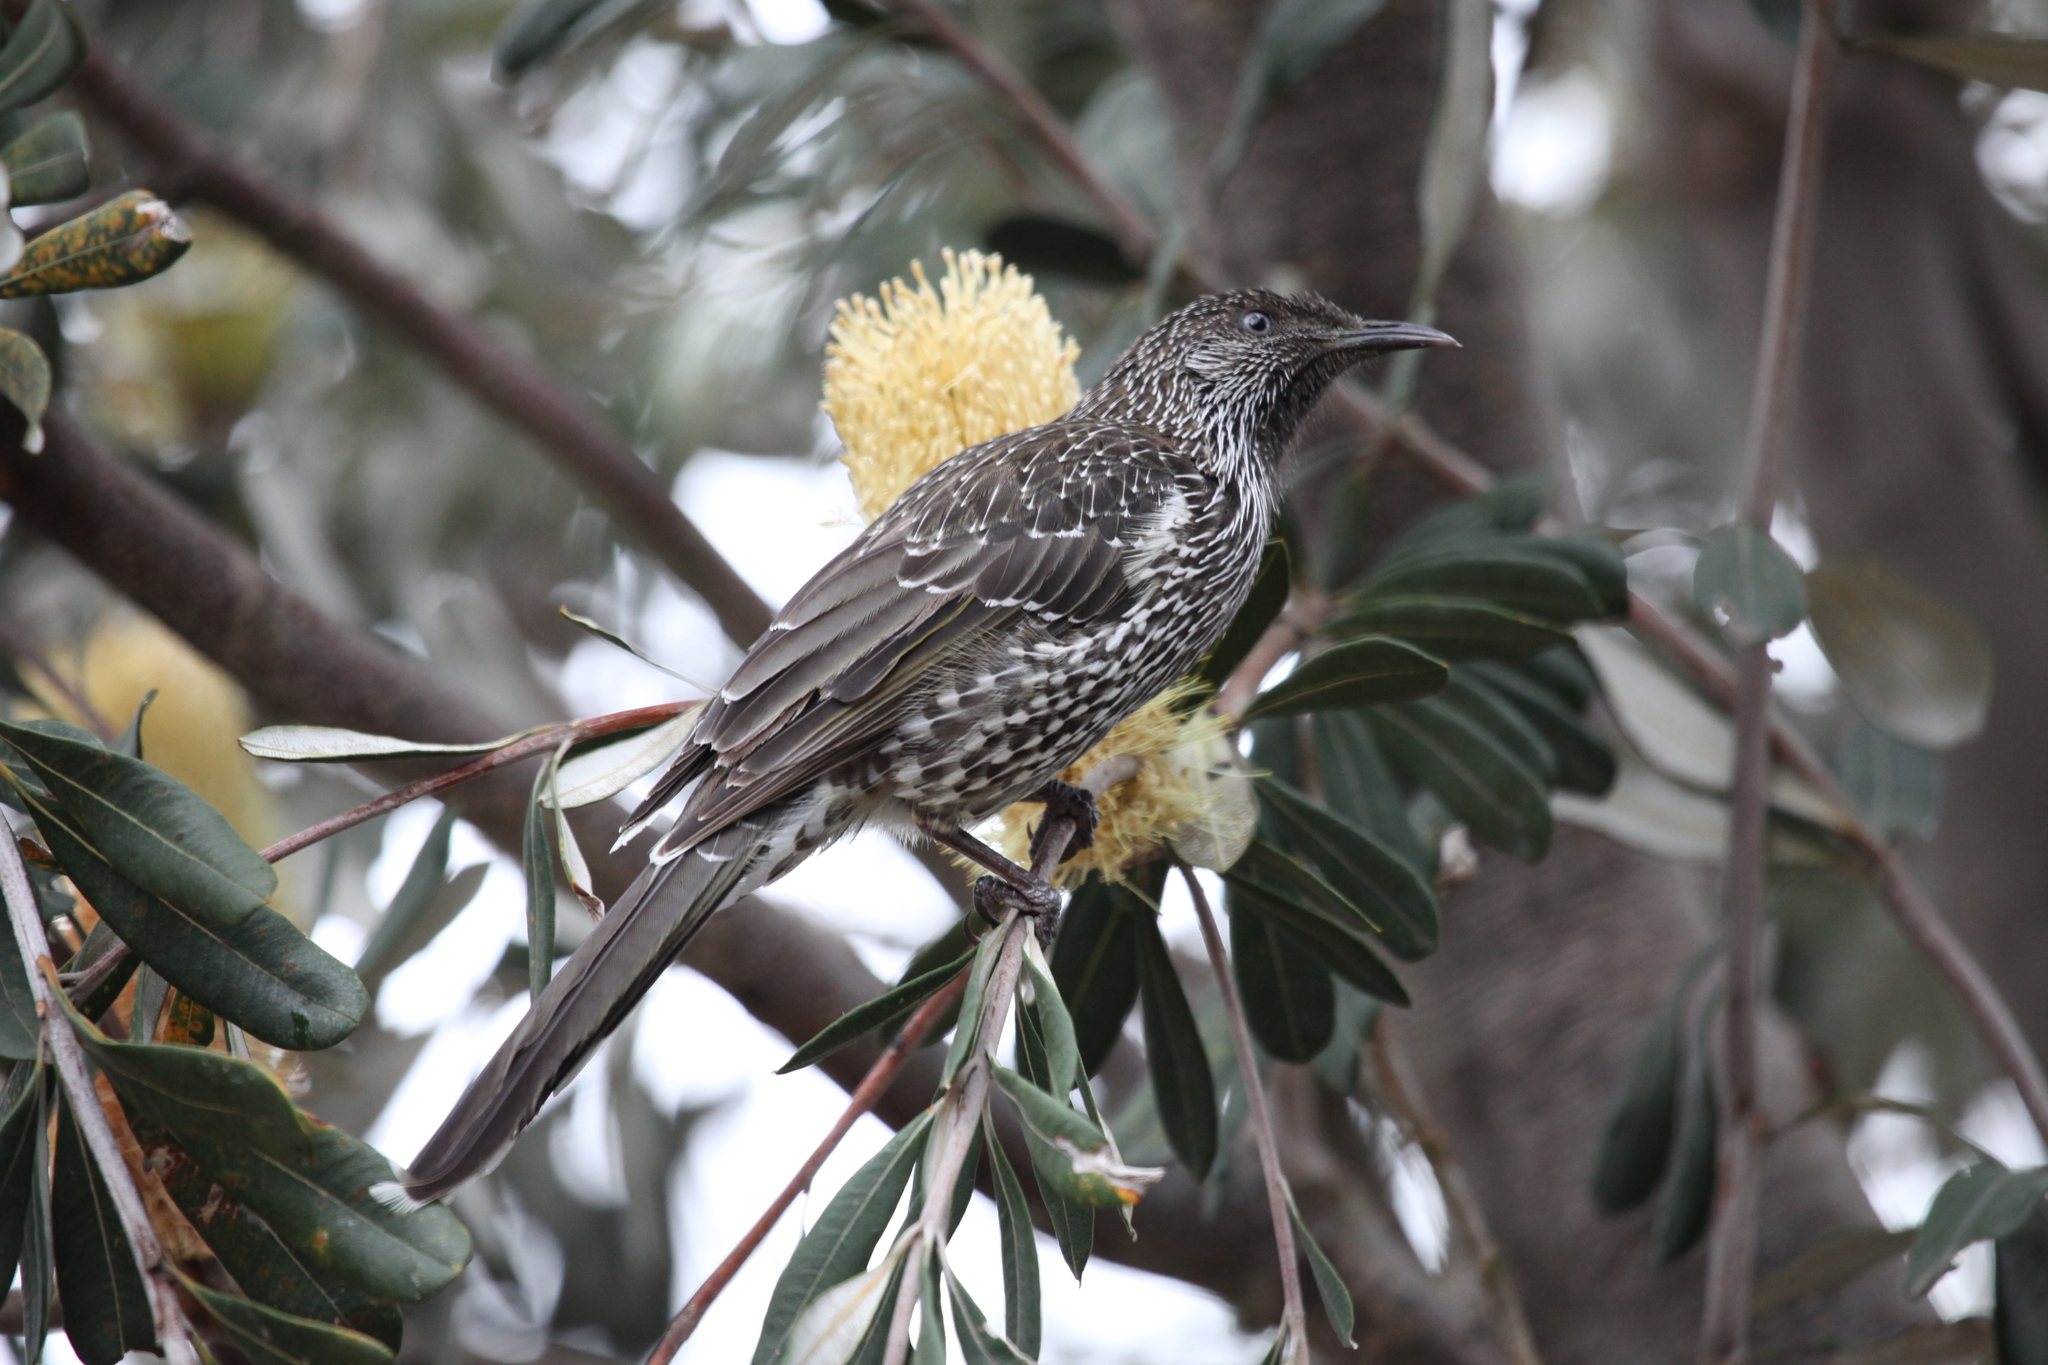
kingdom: Animalia
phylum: Chordata
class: Aves
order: Passeriformes
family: Meliphagidae
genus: Anthochaera
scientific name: Anthochaera chrysoptera
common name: Little wattlebird
